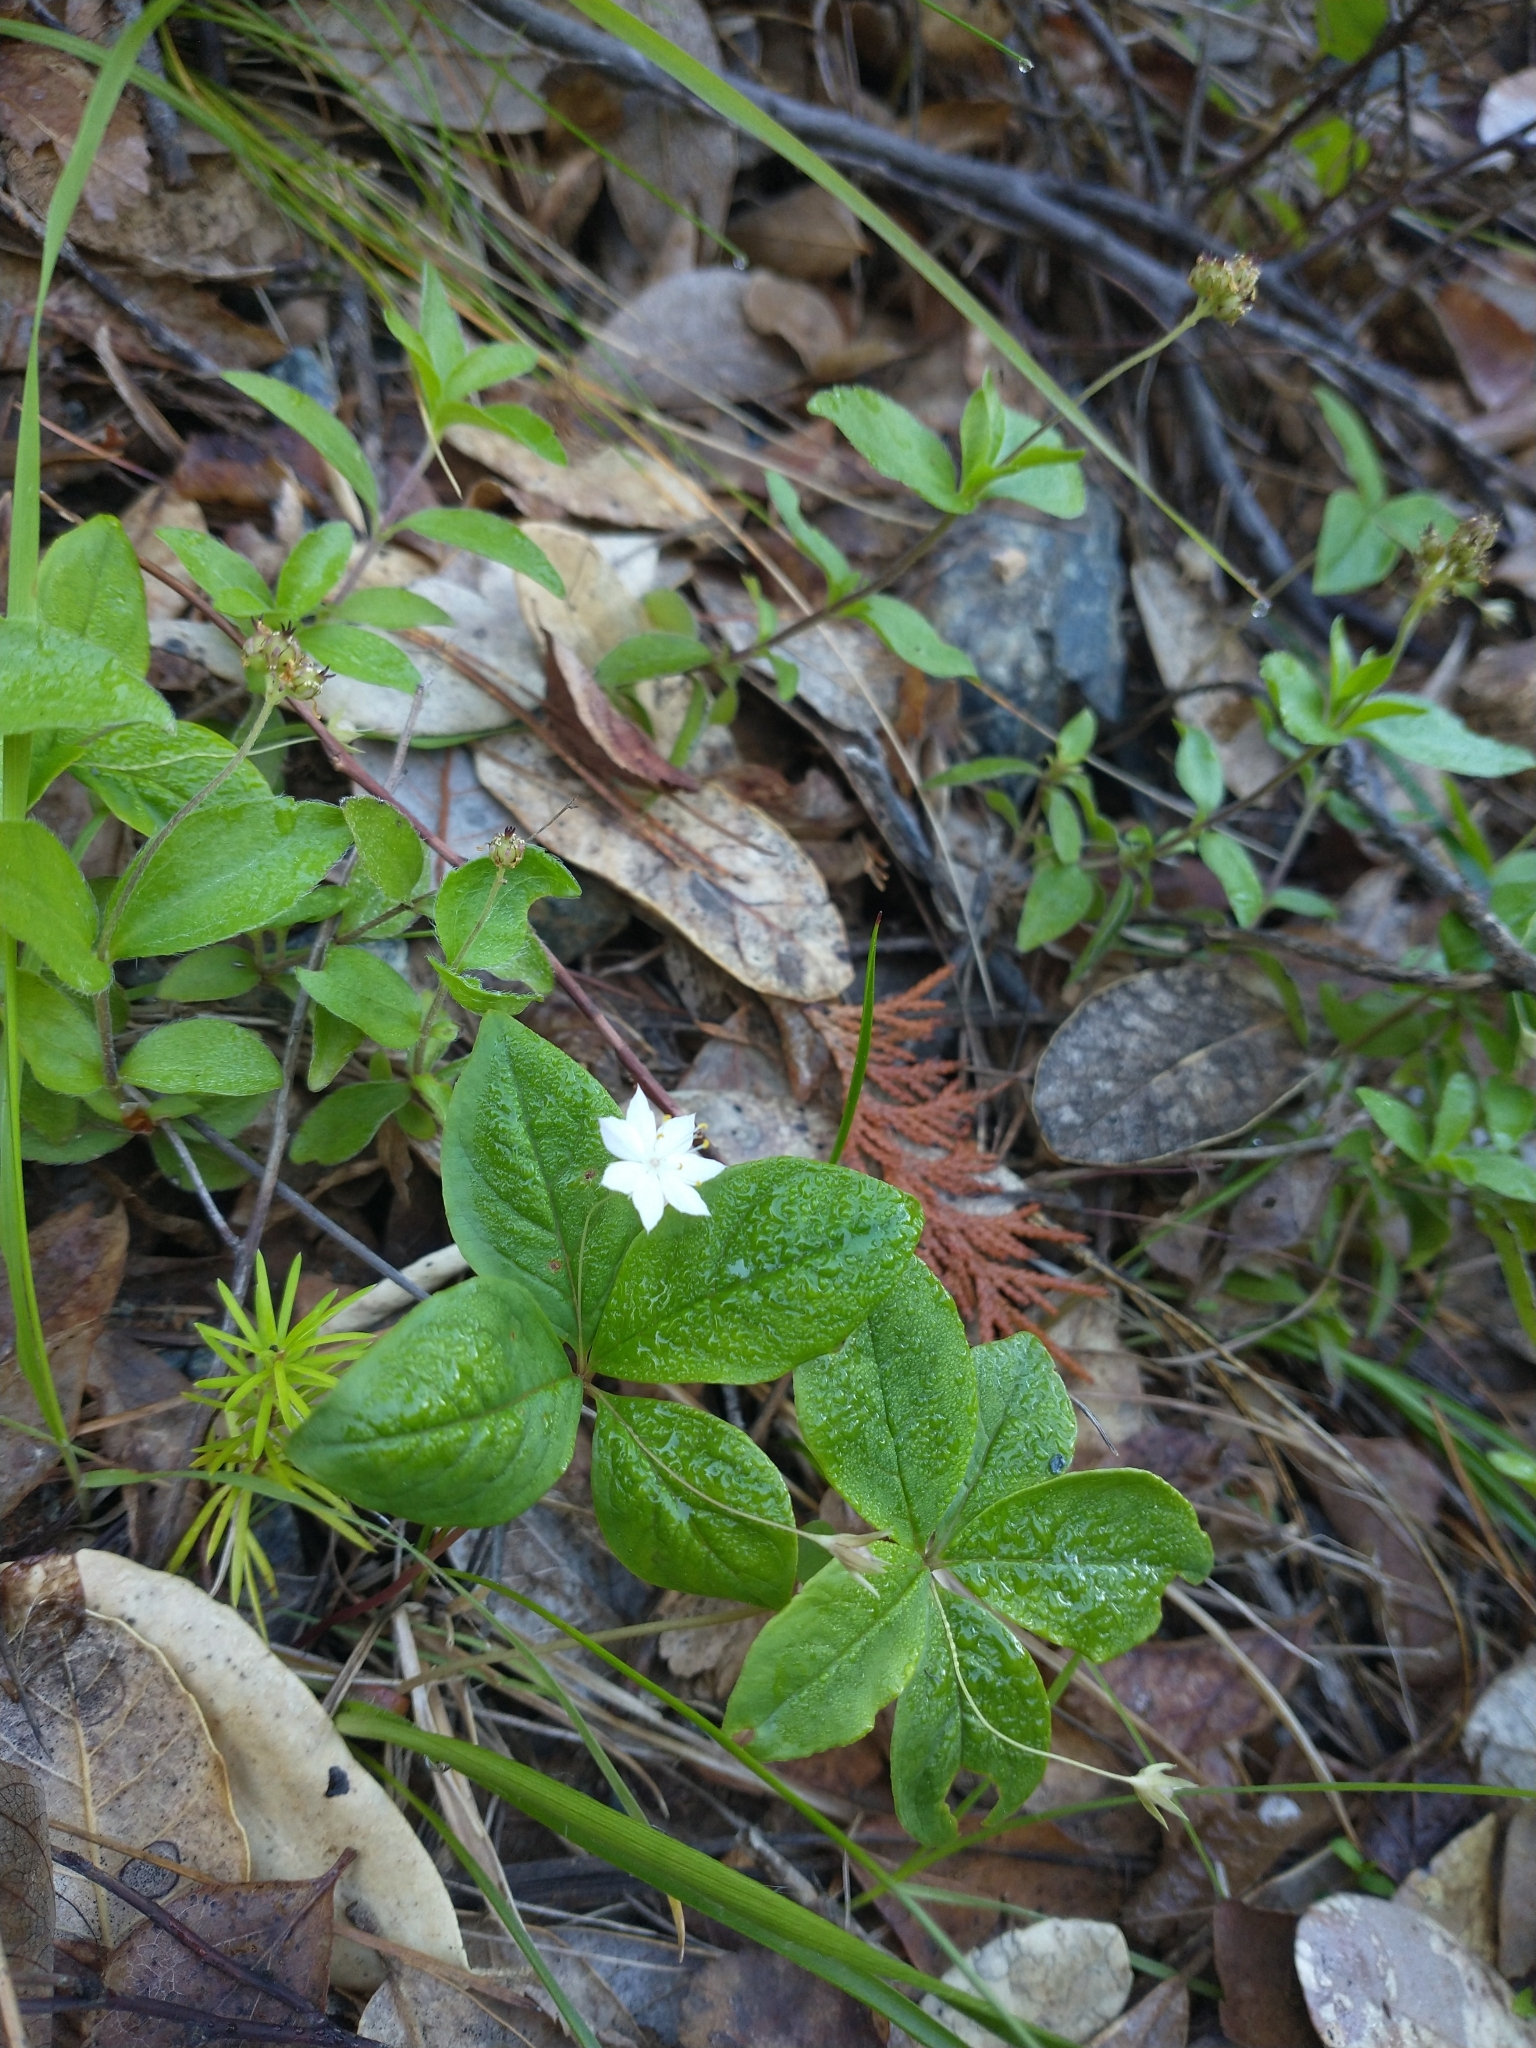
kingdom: Plantae
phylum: Tracheophyta
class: Magnoliopsida
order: Ericales
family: Primulaceae
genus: Lysimachia
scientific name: Lysimachia latifolia
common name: Pacific starflower
